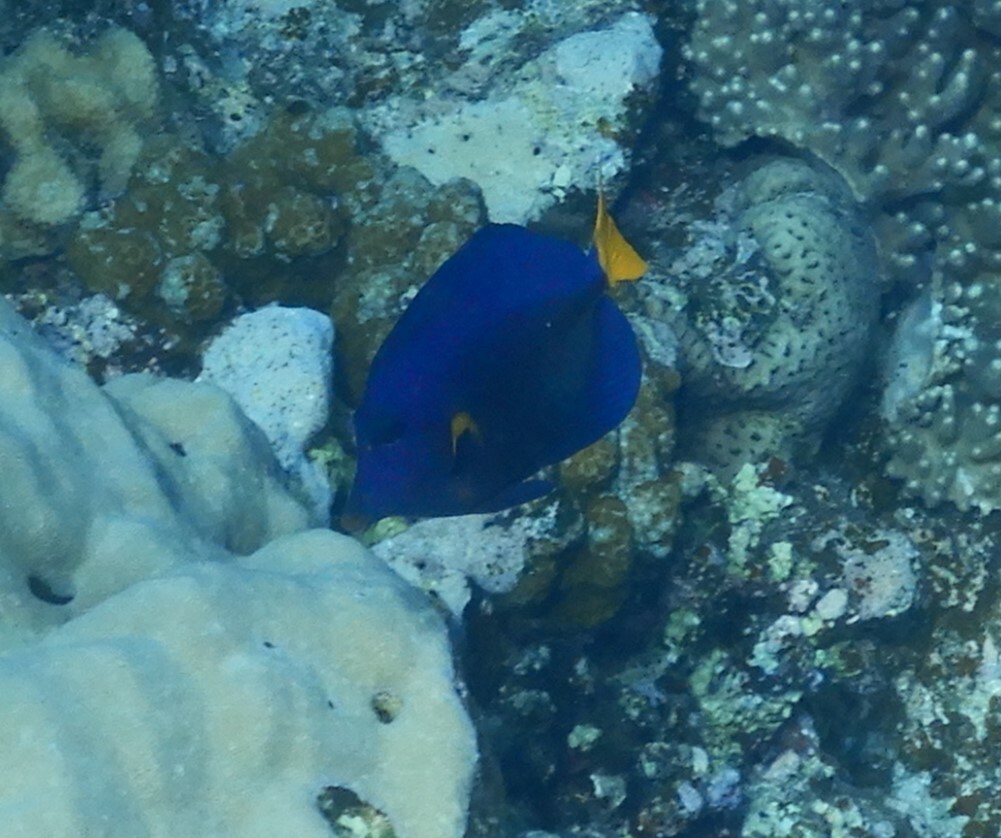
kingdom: Animalia
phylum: Chordata
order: Perciformes
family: Acanthuridae
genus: Zebrasoma
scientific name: Zebrasoma xanthurum
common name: Purple tang
